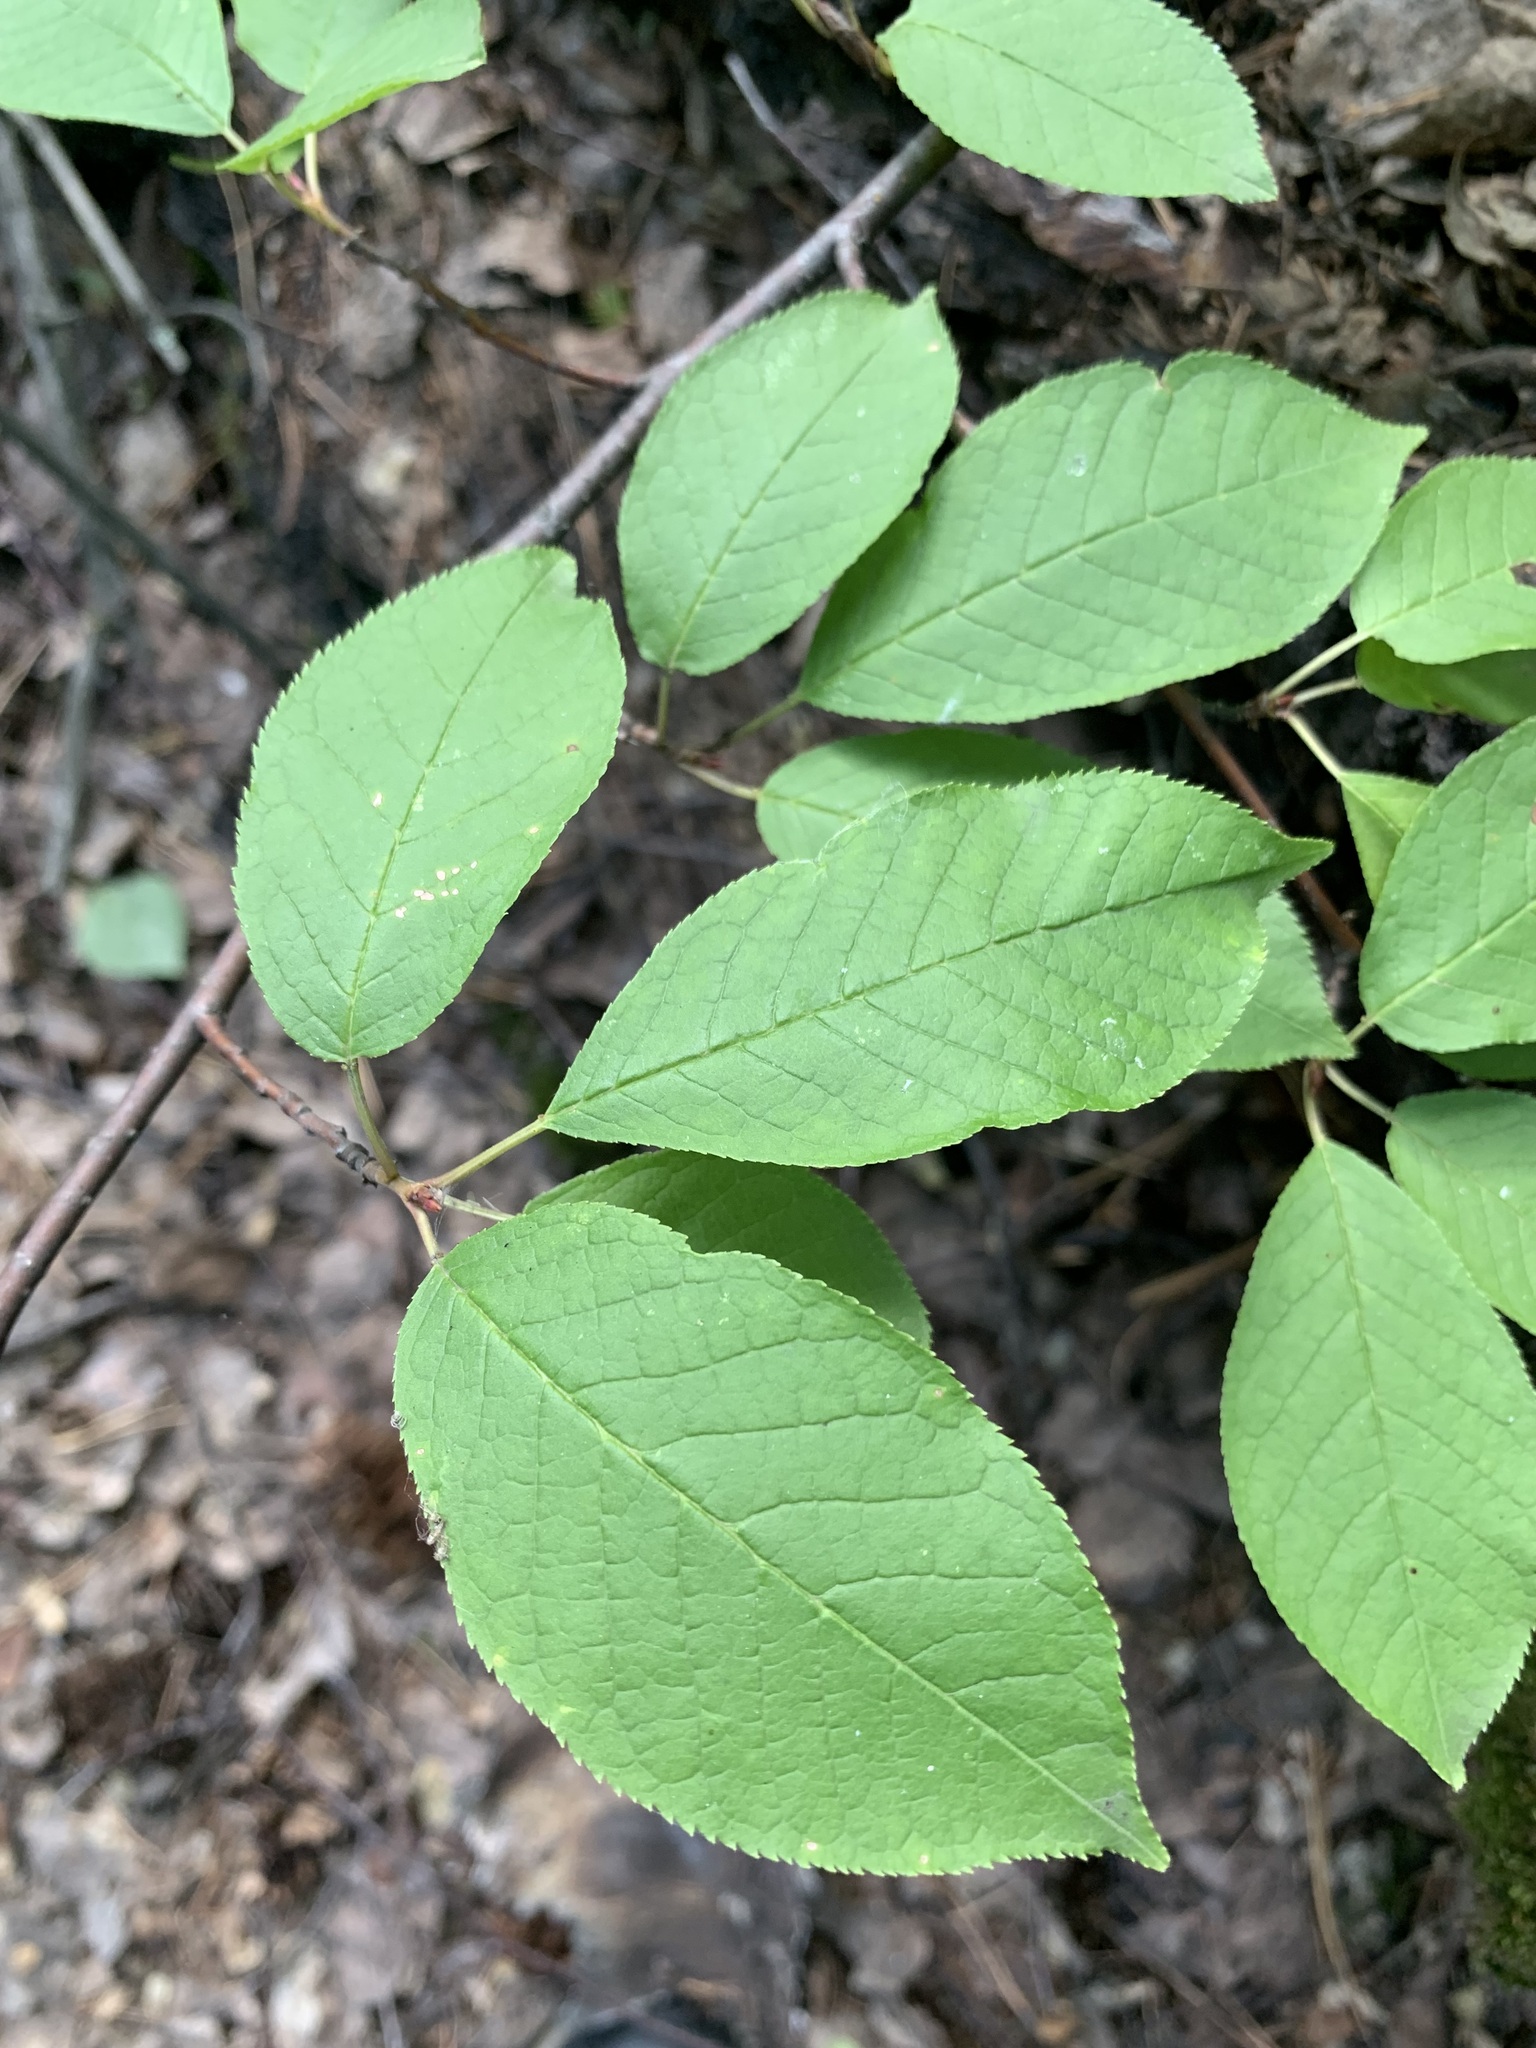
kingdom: Plantae
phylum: Tracheophyta
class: Magnoliopsida
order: Rosales
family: Rosaceae
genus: Prunus
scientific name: Prunus padus
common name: Bird cherry
